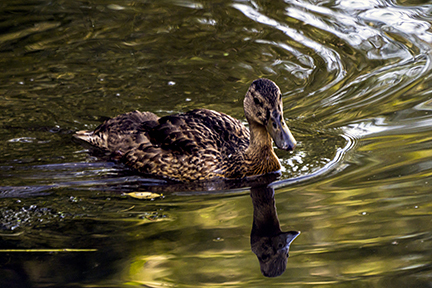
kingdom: Animalia
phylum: Chordata
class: Aves
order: Anseriformes
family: Anatidae
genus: Anas
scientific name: Anas platyrhynchos
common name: Mallard
